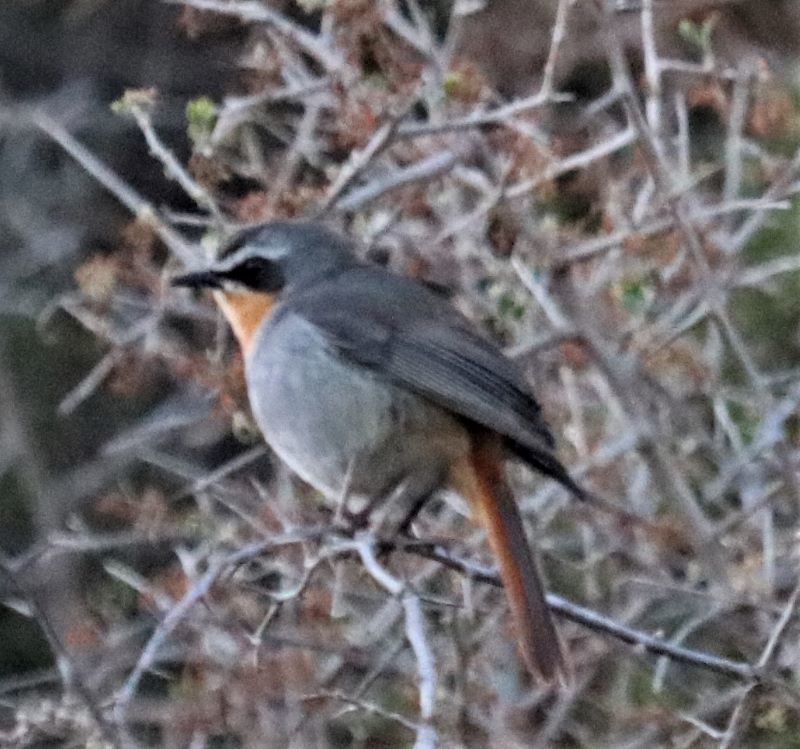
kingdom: Animalia
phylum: Chordata
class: Aves
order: Passeriformes
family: Muscicapidae
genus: Cossypha
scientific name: Cossypha caffra
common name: Cape robin-chat
